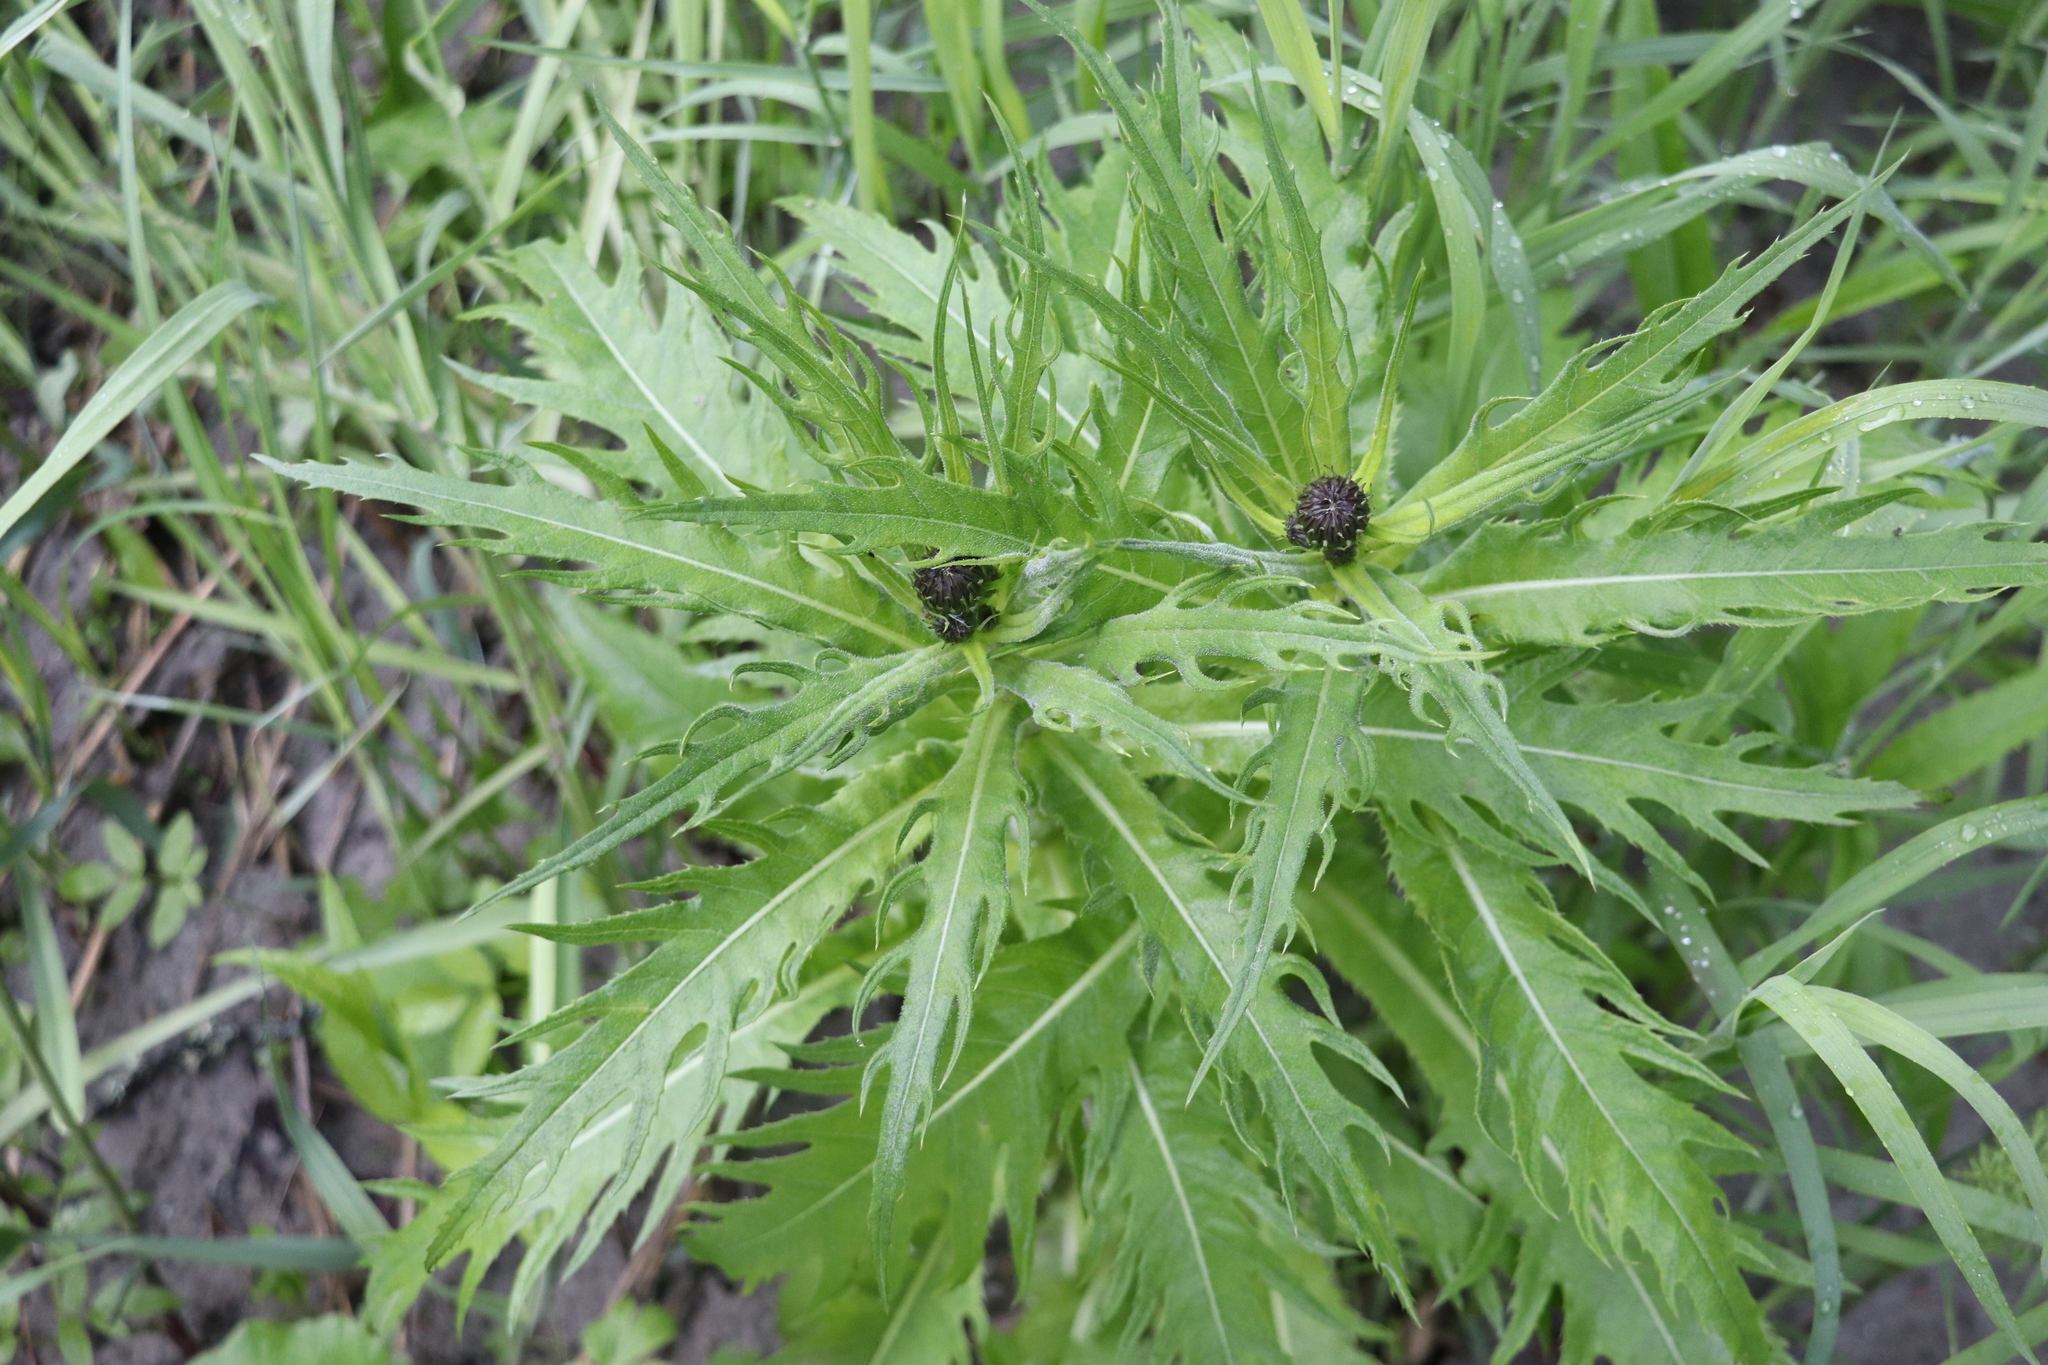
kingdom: Plantae
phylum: Tracheophyta
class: Magnoliopsida
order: Asterales
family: Asteraceae
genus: Cirsium
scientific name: Cirsium heterophyllum
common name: Melancholy thistle
